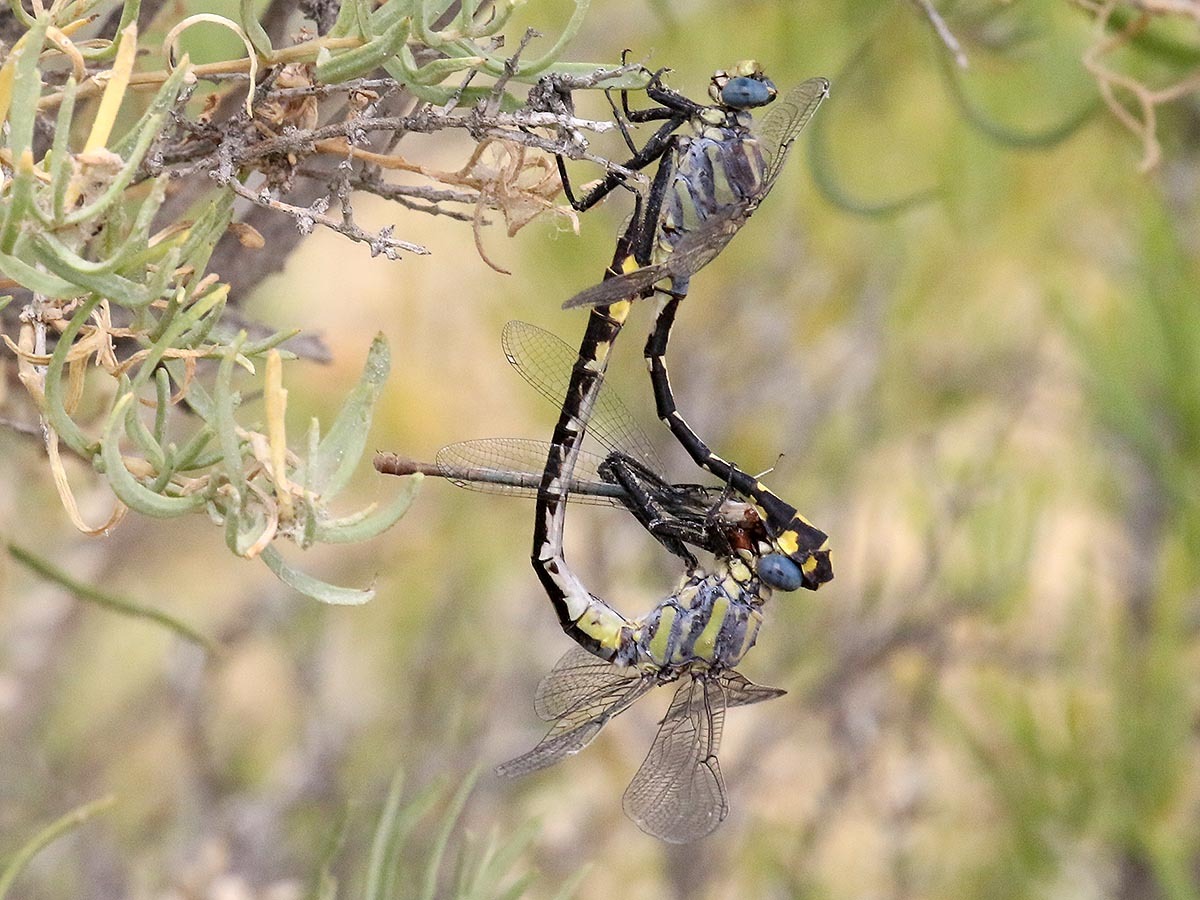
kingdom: Animalia
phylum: Arthropoda
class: Insecta
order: Odonata
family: Gomphidae
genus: Gomphurus
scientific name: Gomphurus lynnae
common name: Columbia clubtail
